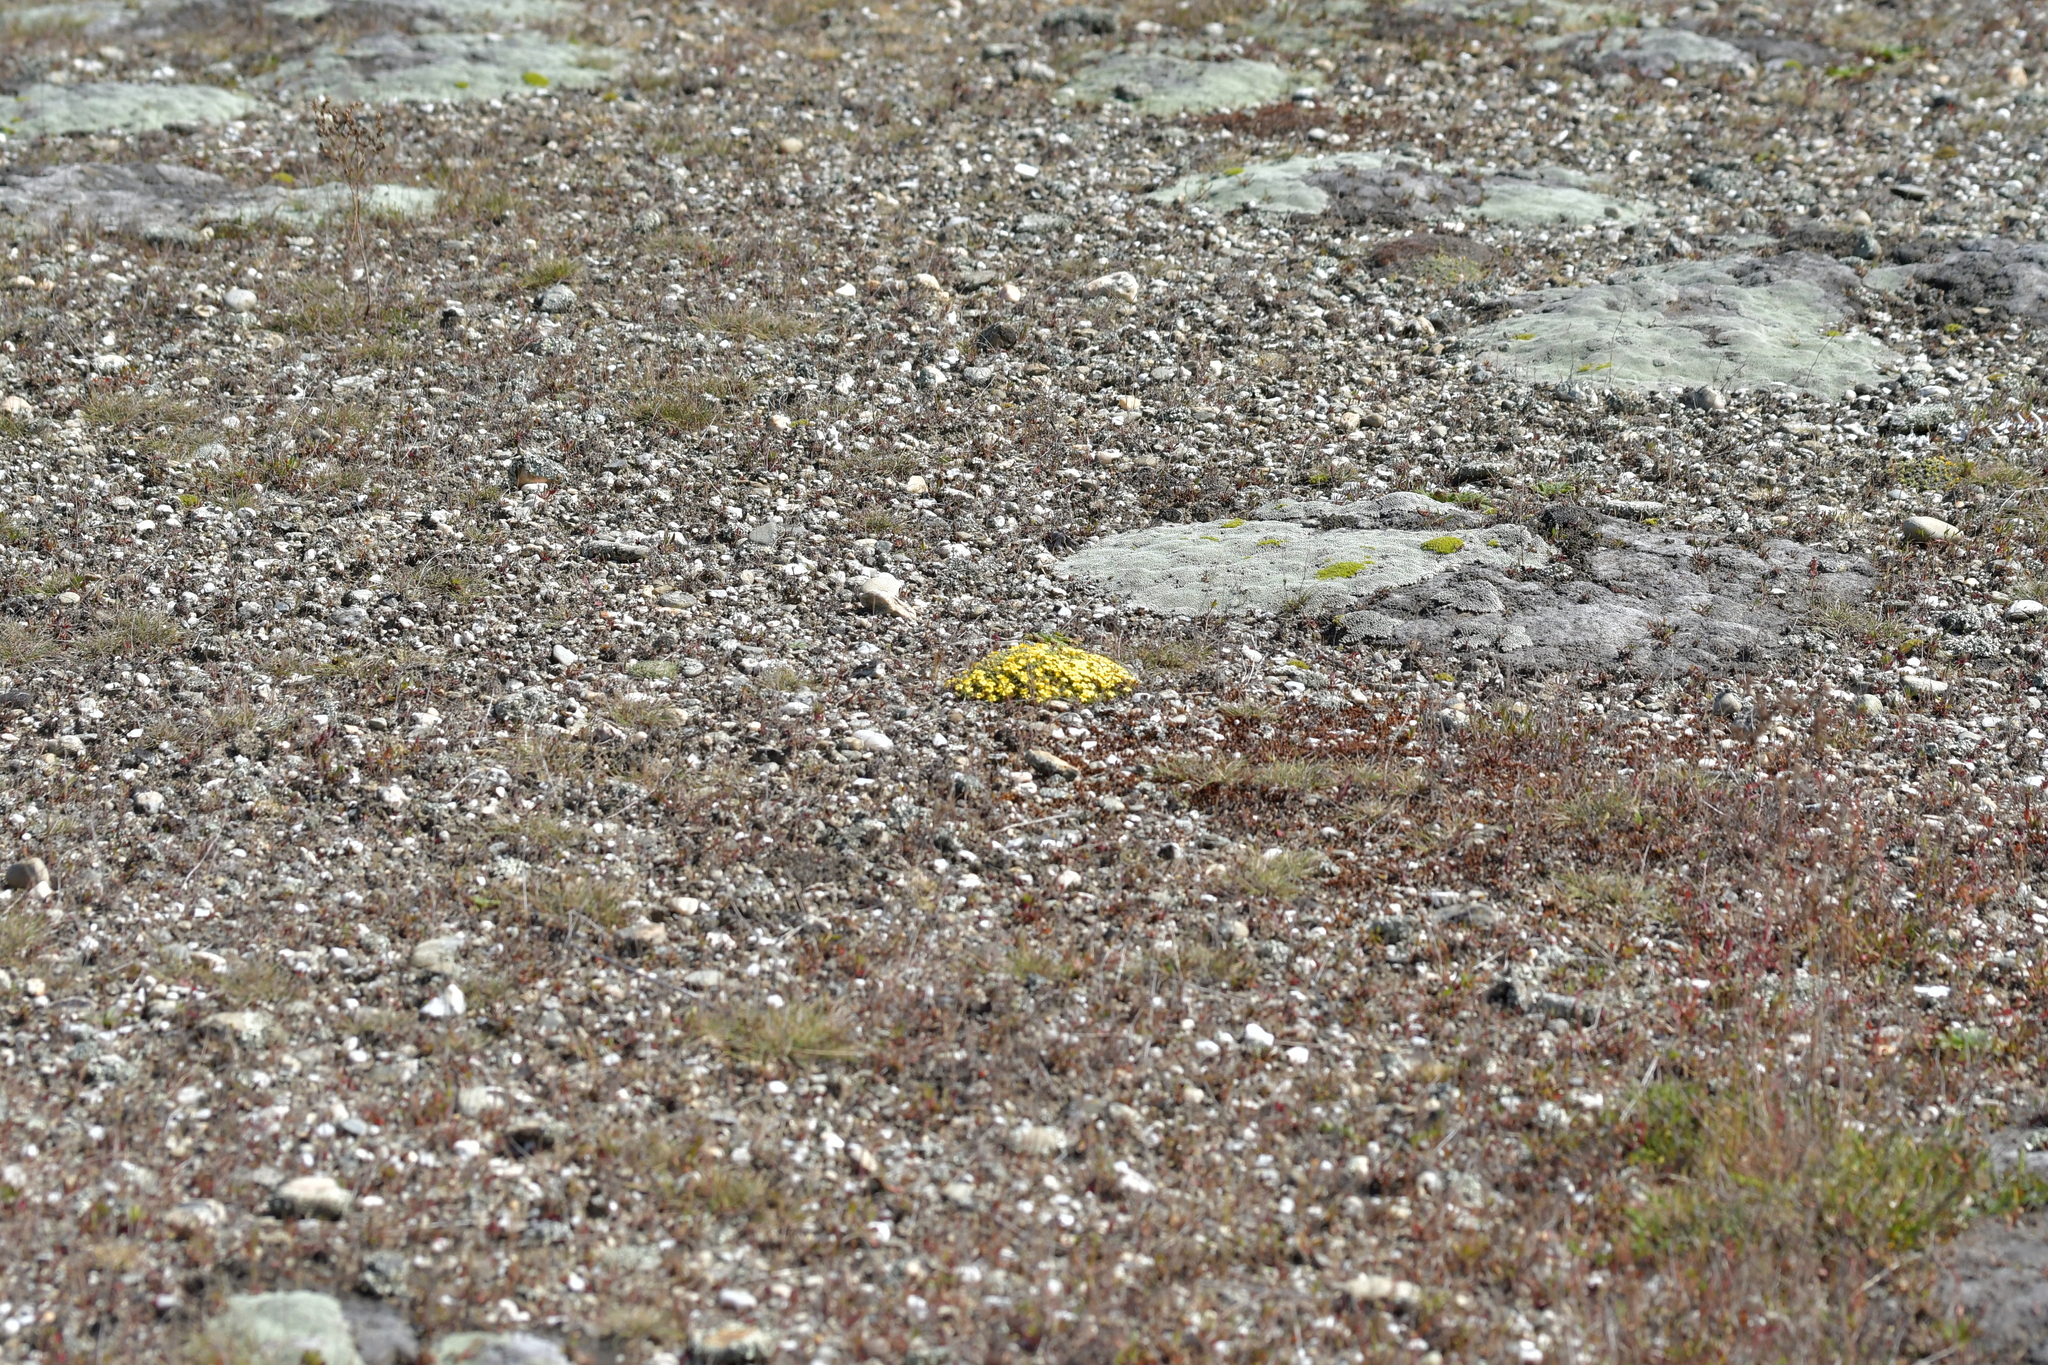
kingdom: Plantae
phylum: Tracheophyta
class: Magnoliopsida
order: Boraginales
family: Boraginaceae
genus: Myosotis
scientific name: Myosotis uniflora
